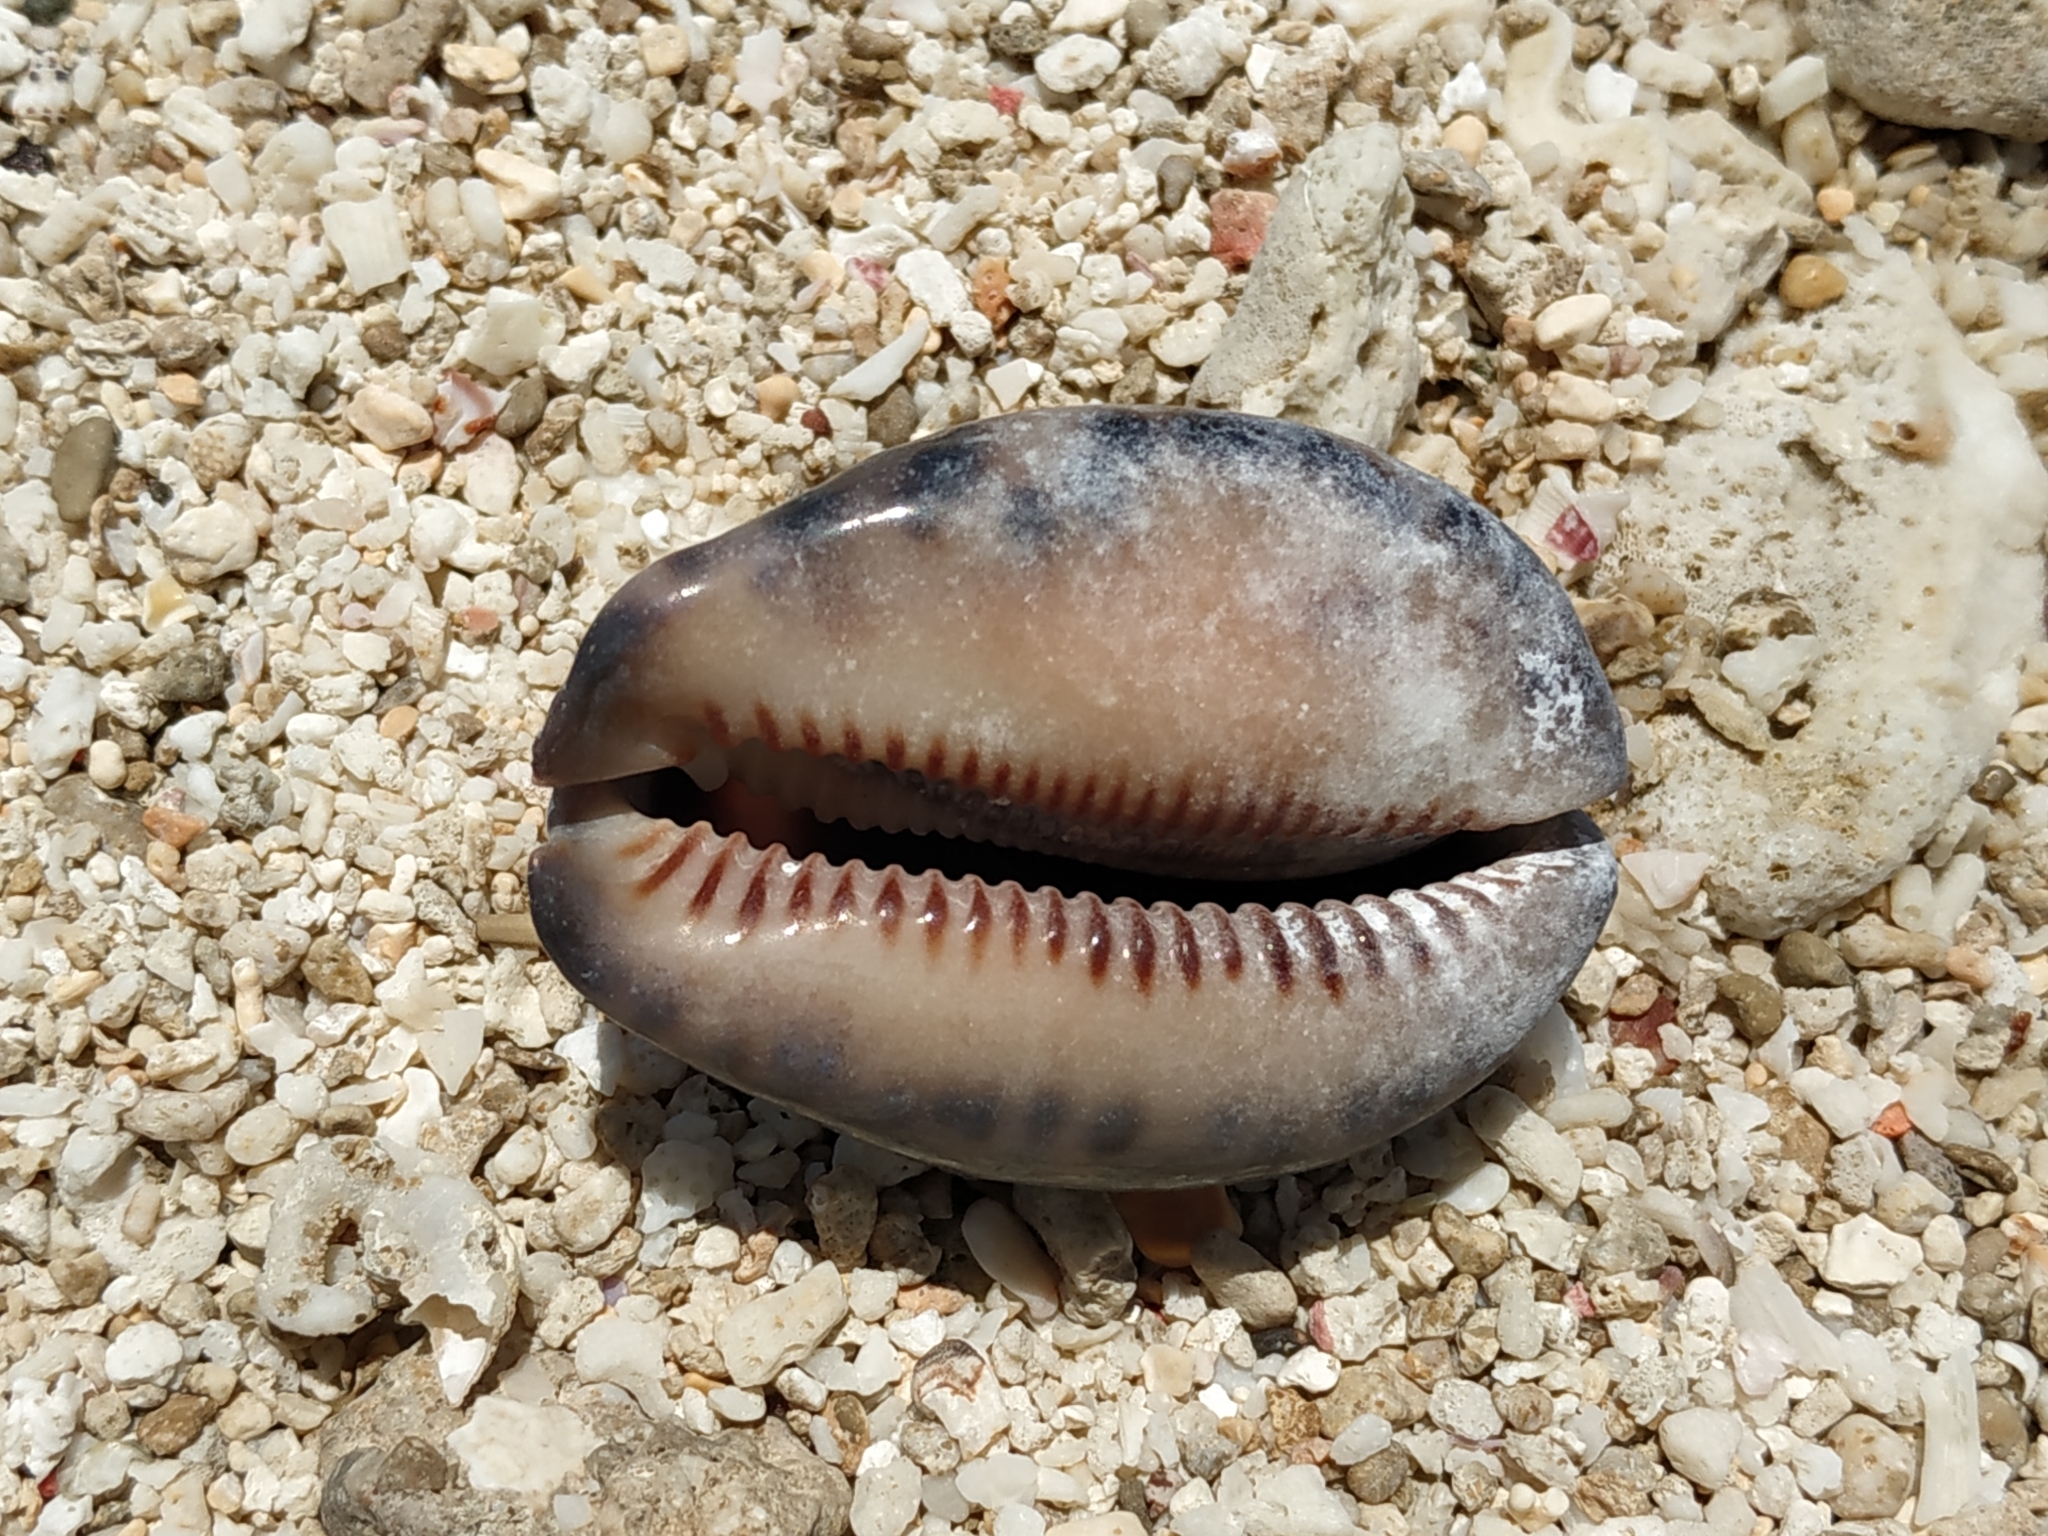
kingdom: Animalia
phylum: Mollusca
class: Gastropoda
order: Littorinimorpha
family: Cypraeidae
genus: Mauritia
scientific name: Mauritia arabica
